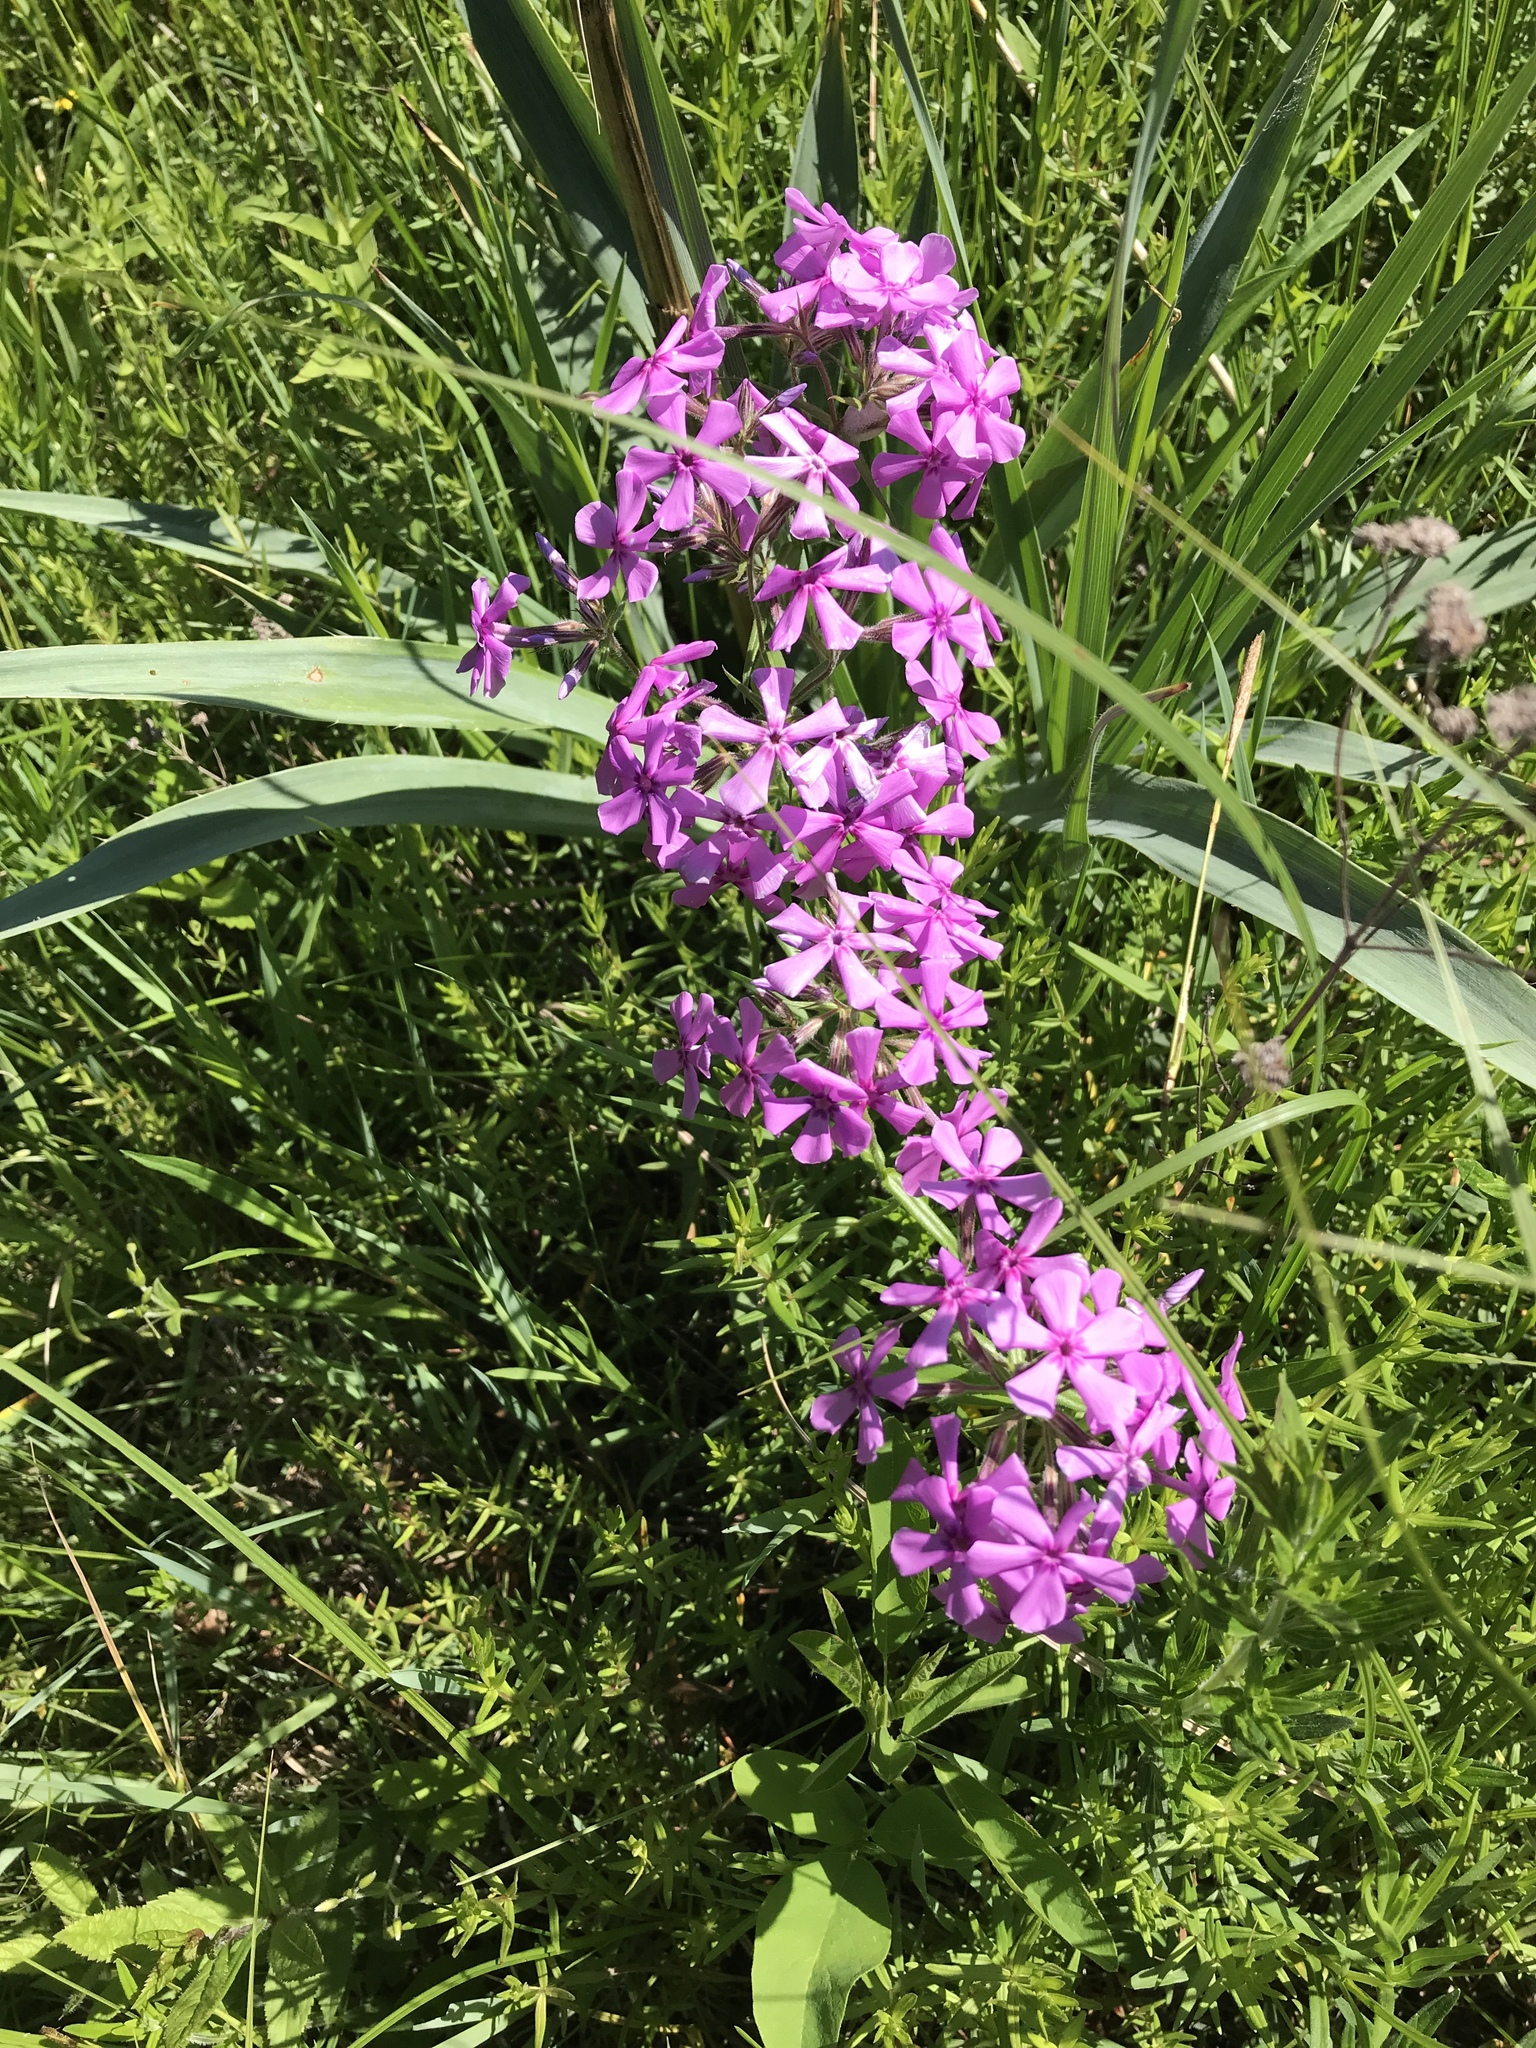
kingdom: Plantae
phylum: Tracheophyta
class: Magnoliopsida
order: Ericales
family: Polemoniaceae
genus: Phlox
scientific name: Phlox pilosa
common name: Prairie phlox
